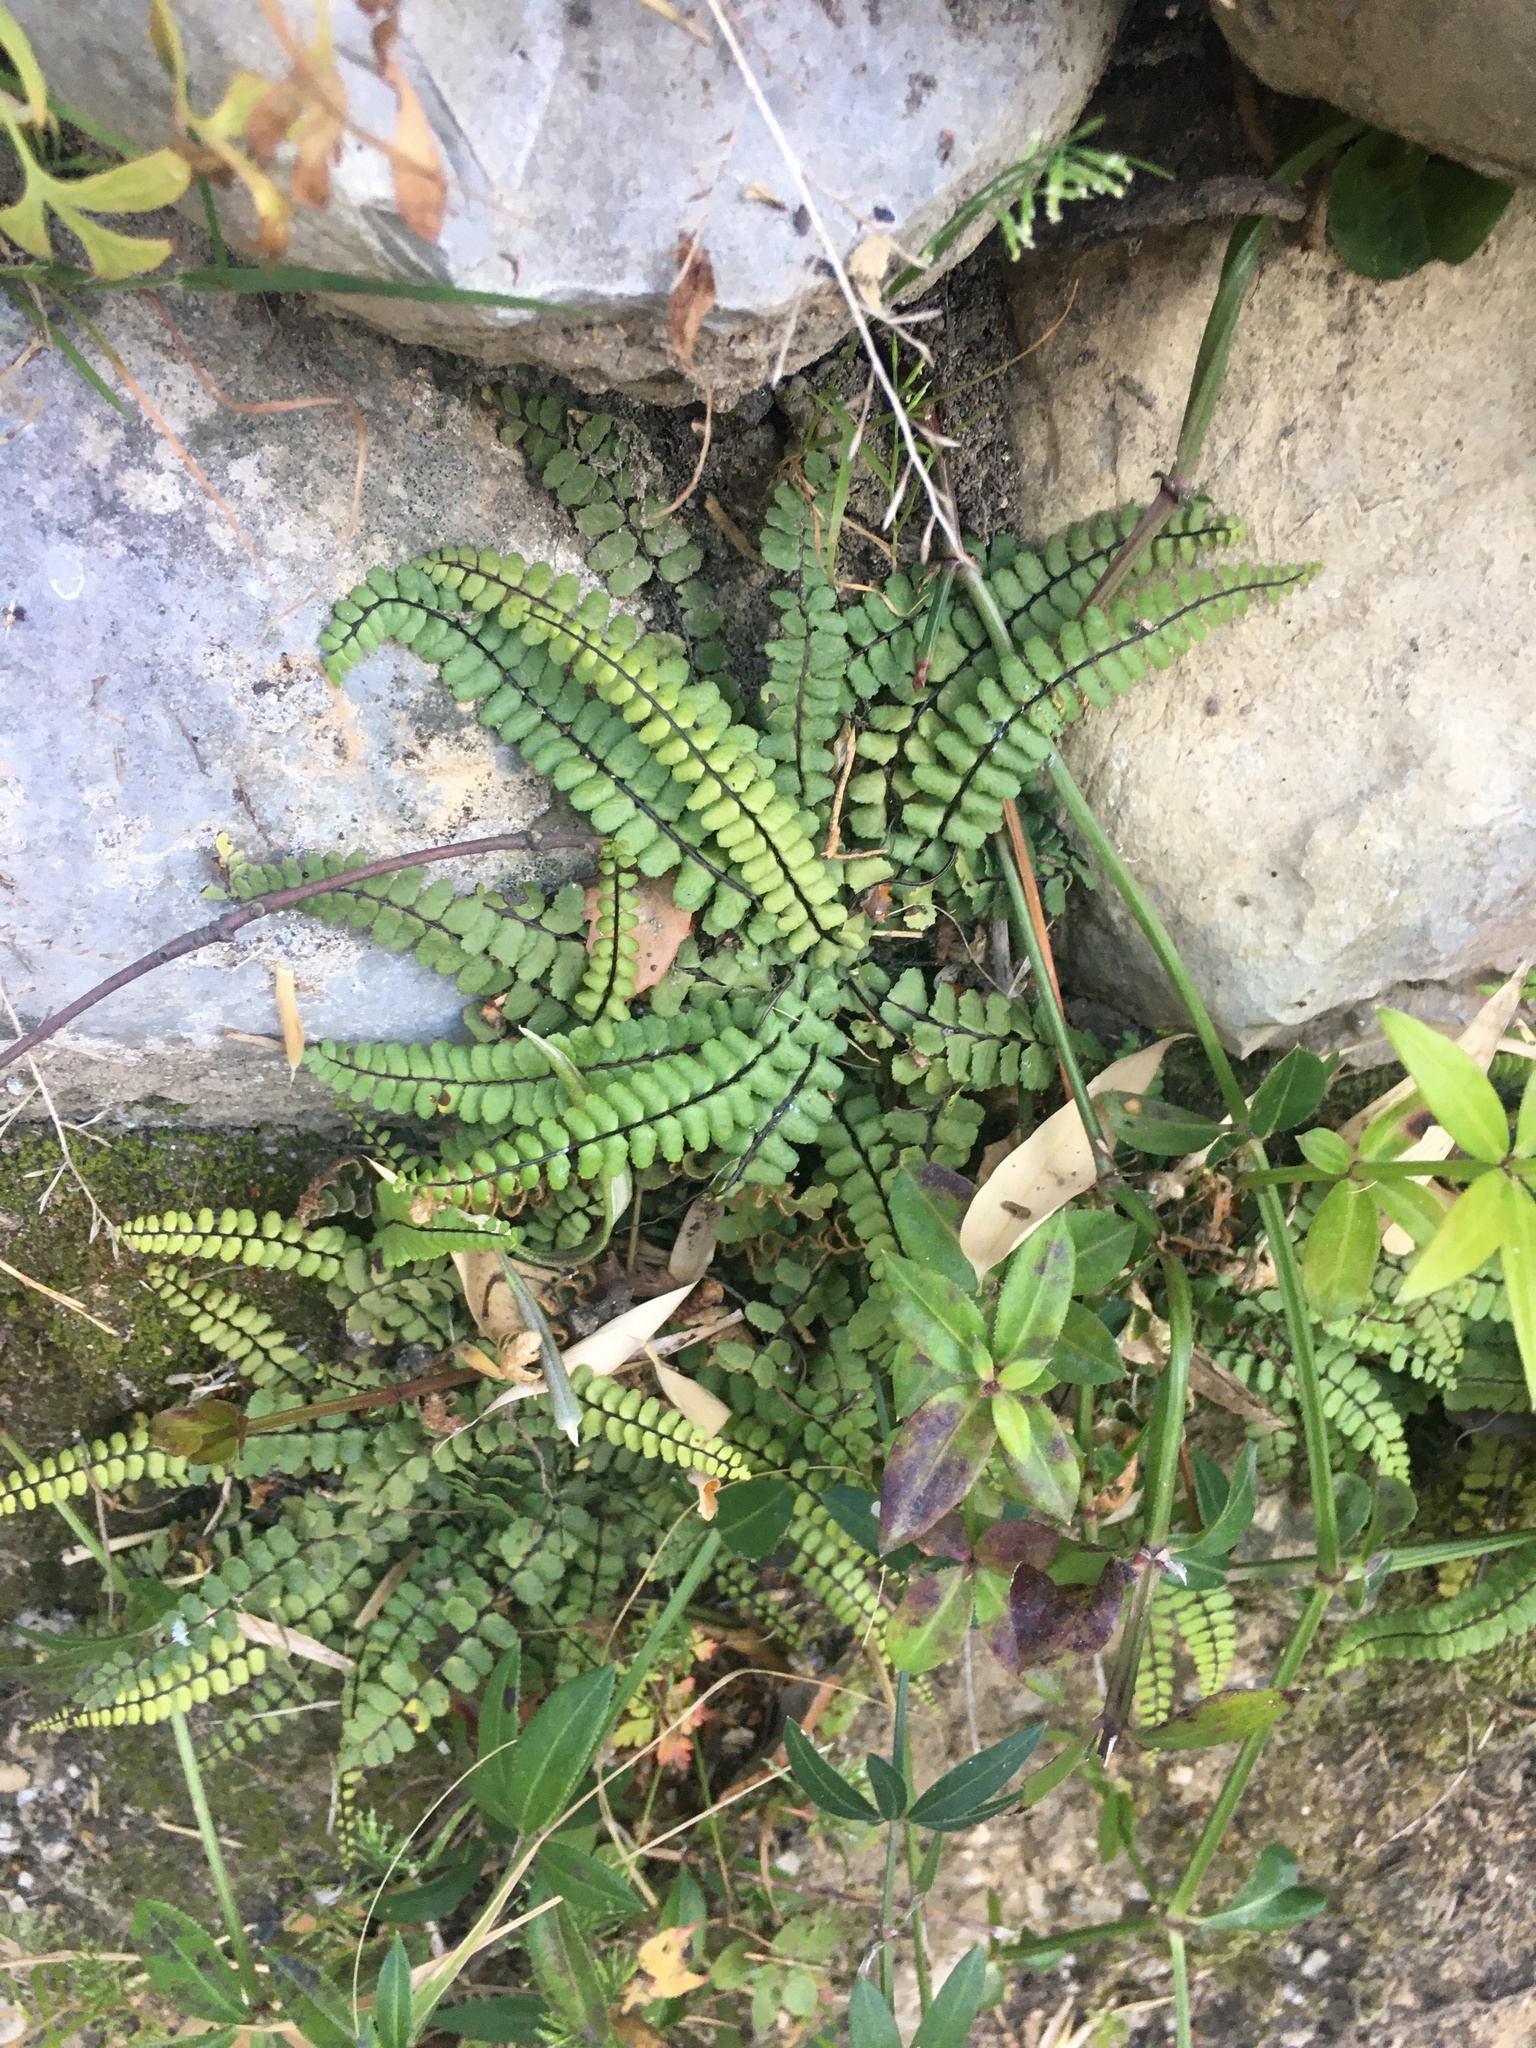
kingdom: Plantae
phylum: Tracheophyta
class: Polypodiopsida
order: Polypodiales
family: Aspleniaceae
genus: Asplenium
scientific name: Asplenium trichomanes
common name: Maidenhair spleenwort
